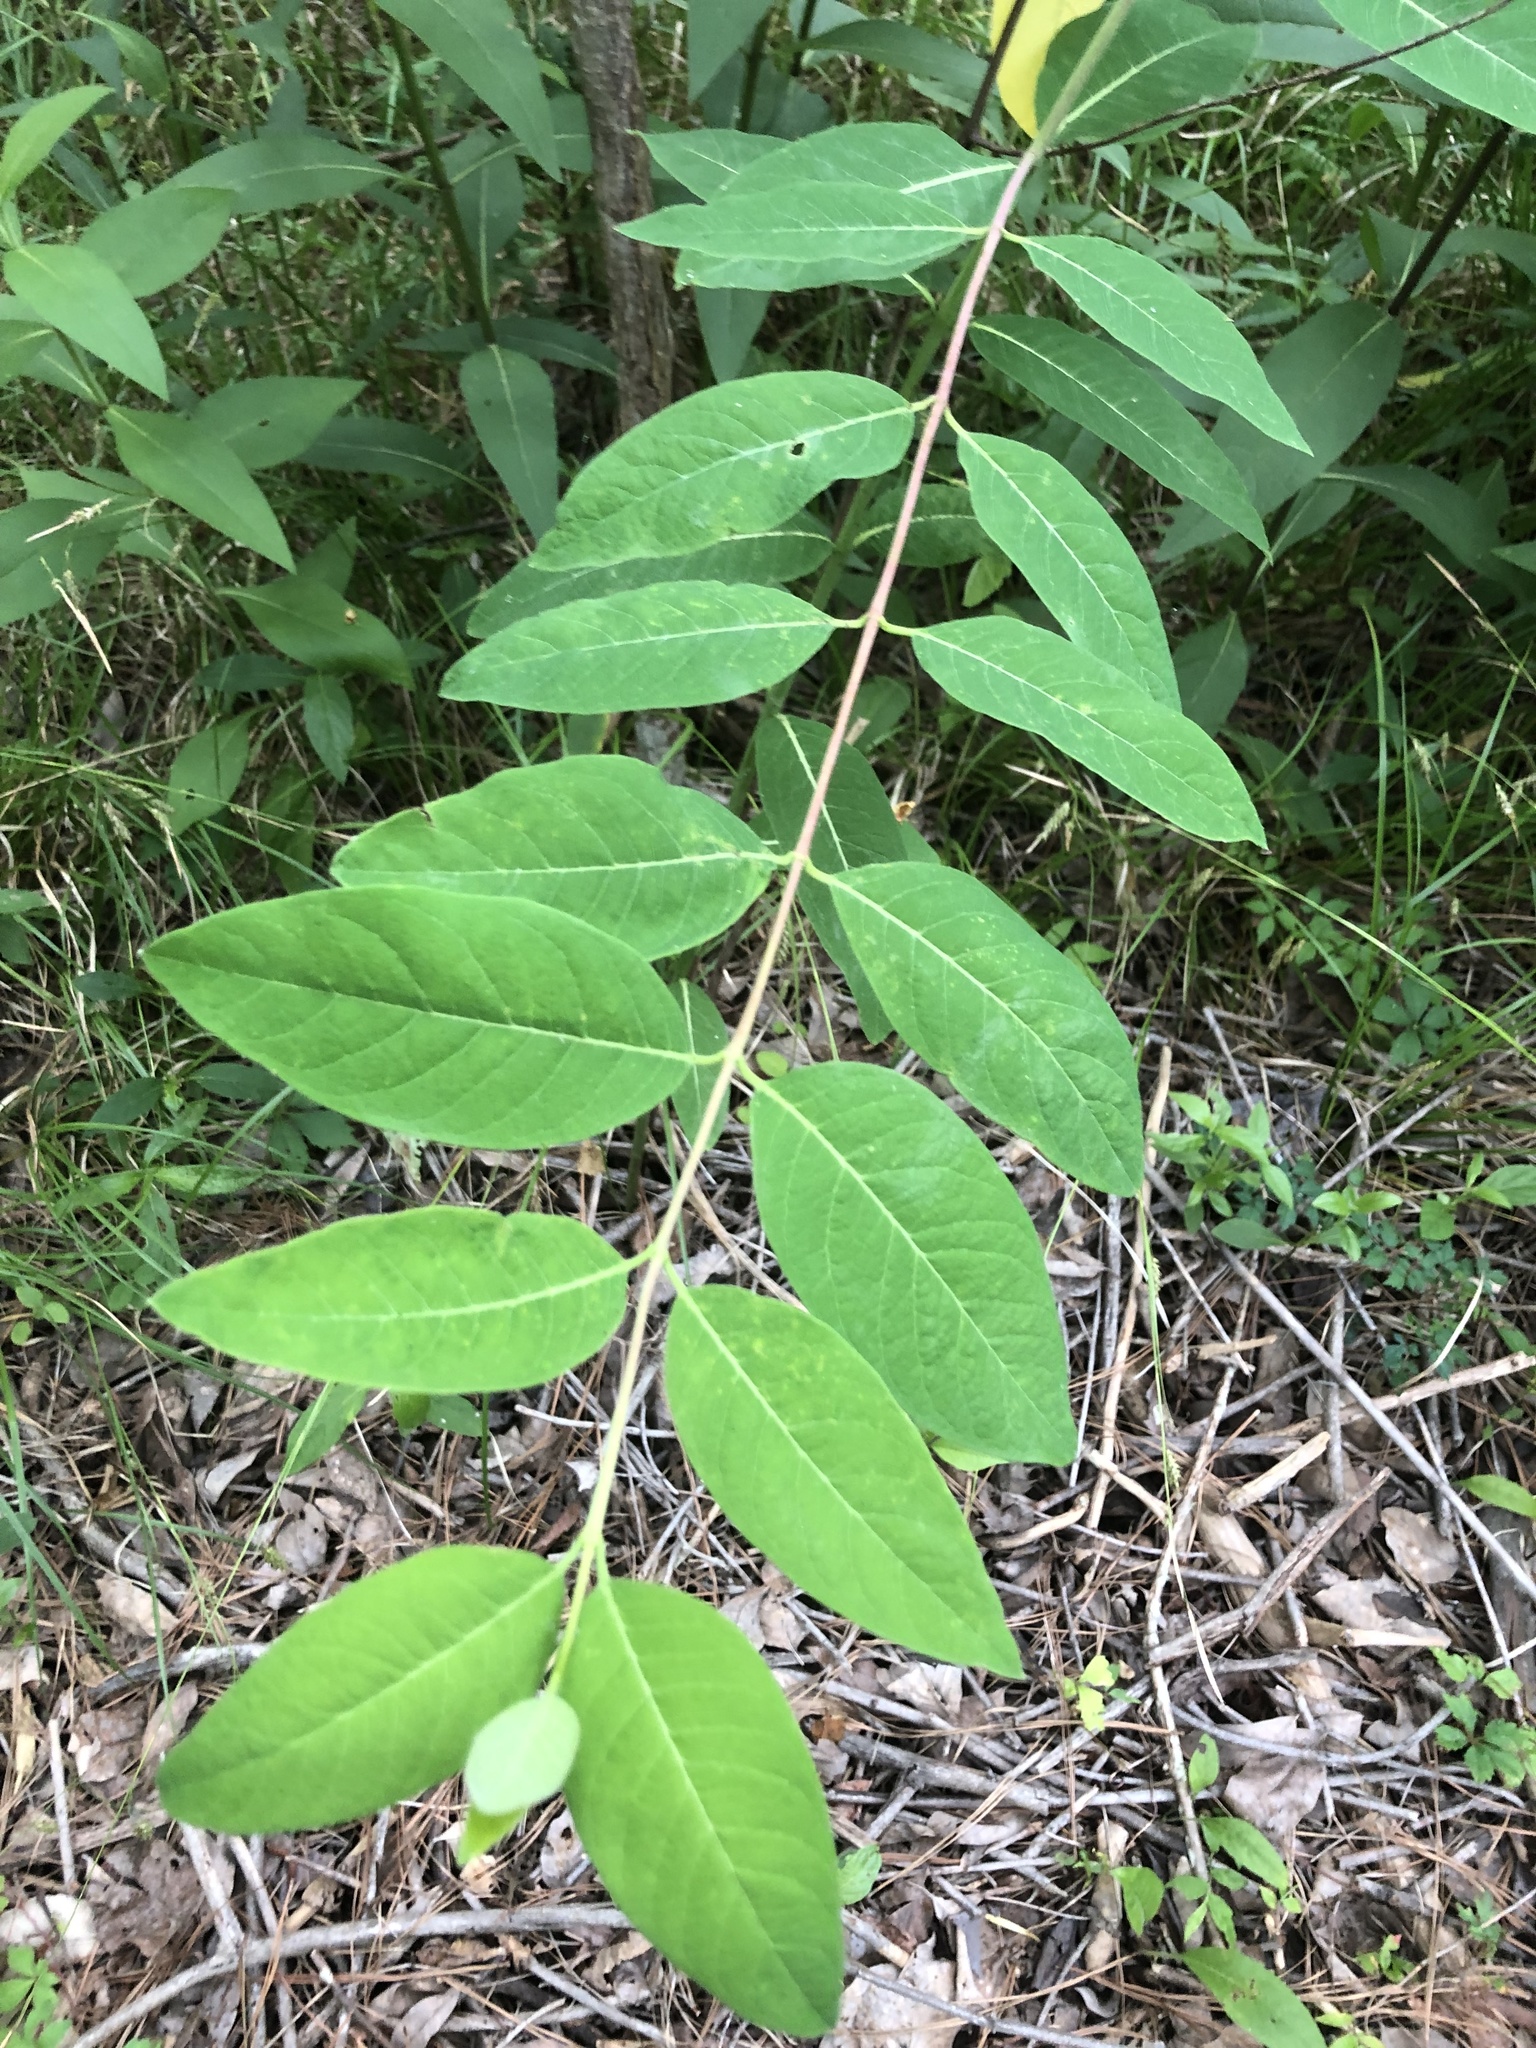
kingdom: Plantae
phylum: Tracheophyta
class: Magnoliopsida
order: Gentianales
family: Apocynaceae
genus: Apocynum
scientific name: Apocynum cannabinum
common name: Hemp dogbane
